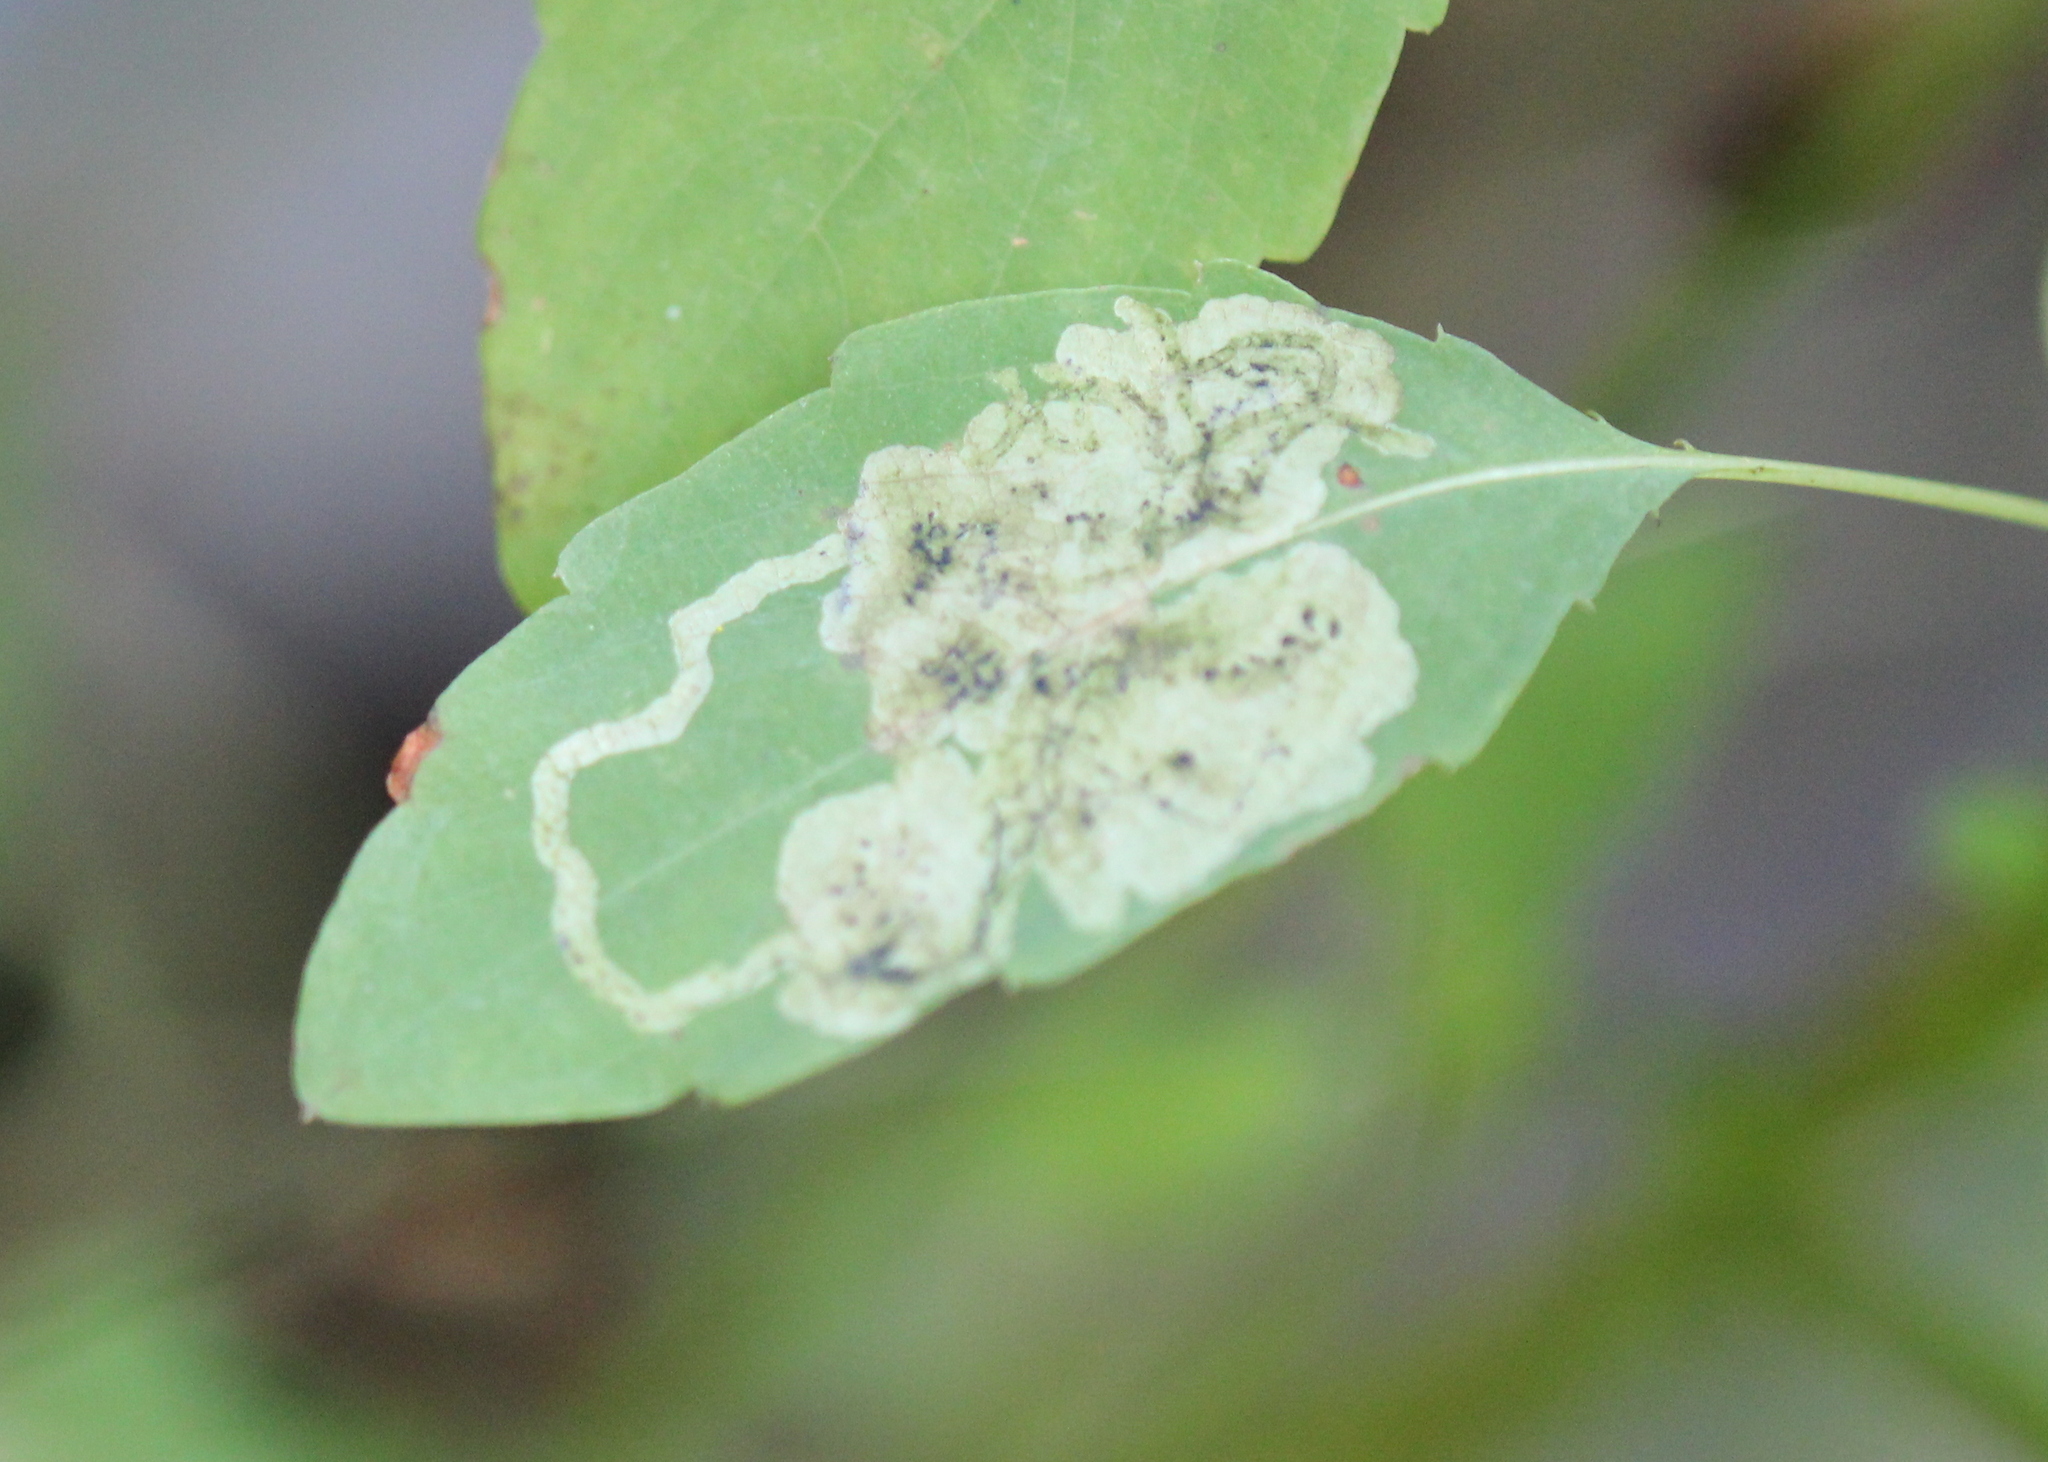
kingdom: Animalia
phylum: Arthropoda
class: Insecta
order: Diptera
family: Agromyzidae
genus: Phytoliriomyza
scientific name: Phytoliriomyza melampyga
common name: Jewelweed leaf-miner fly
